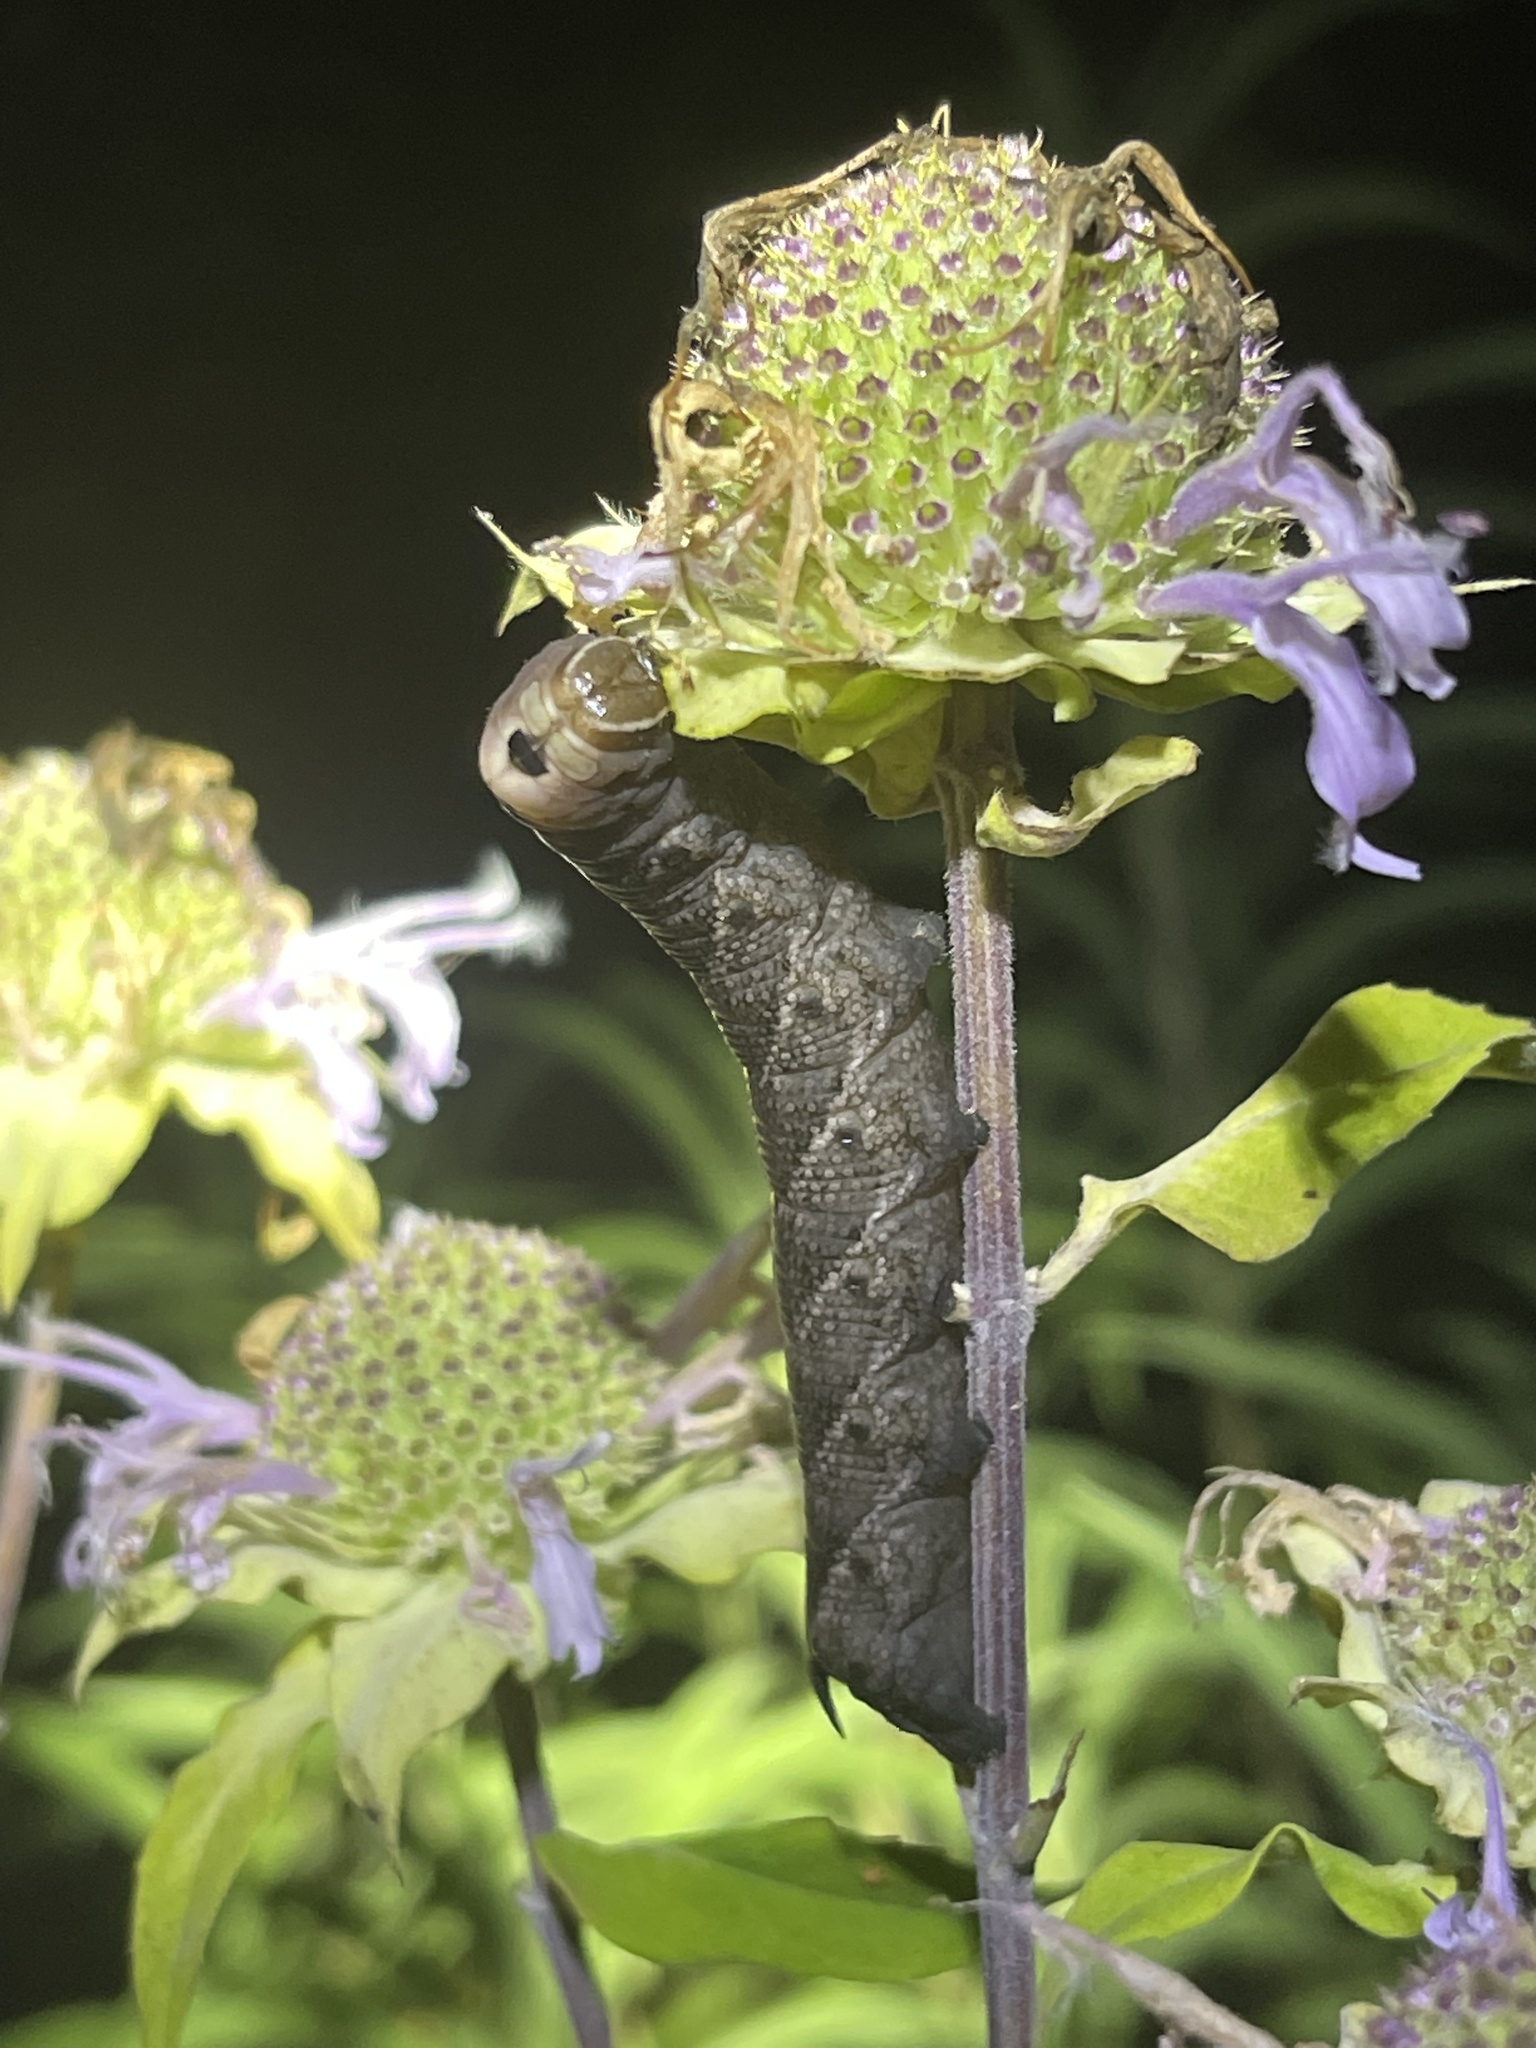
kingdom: Animalia
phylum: Arthropoda
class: Insecta
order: Lepidoptera
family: Sphingidae
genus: Lintneria
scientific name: Lintneria eremitus
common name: Hermit sphinx
